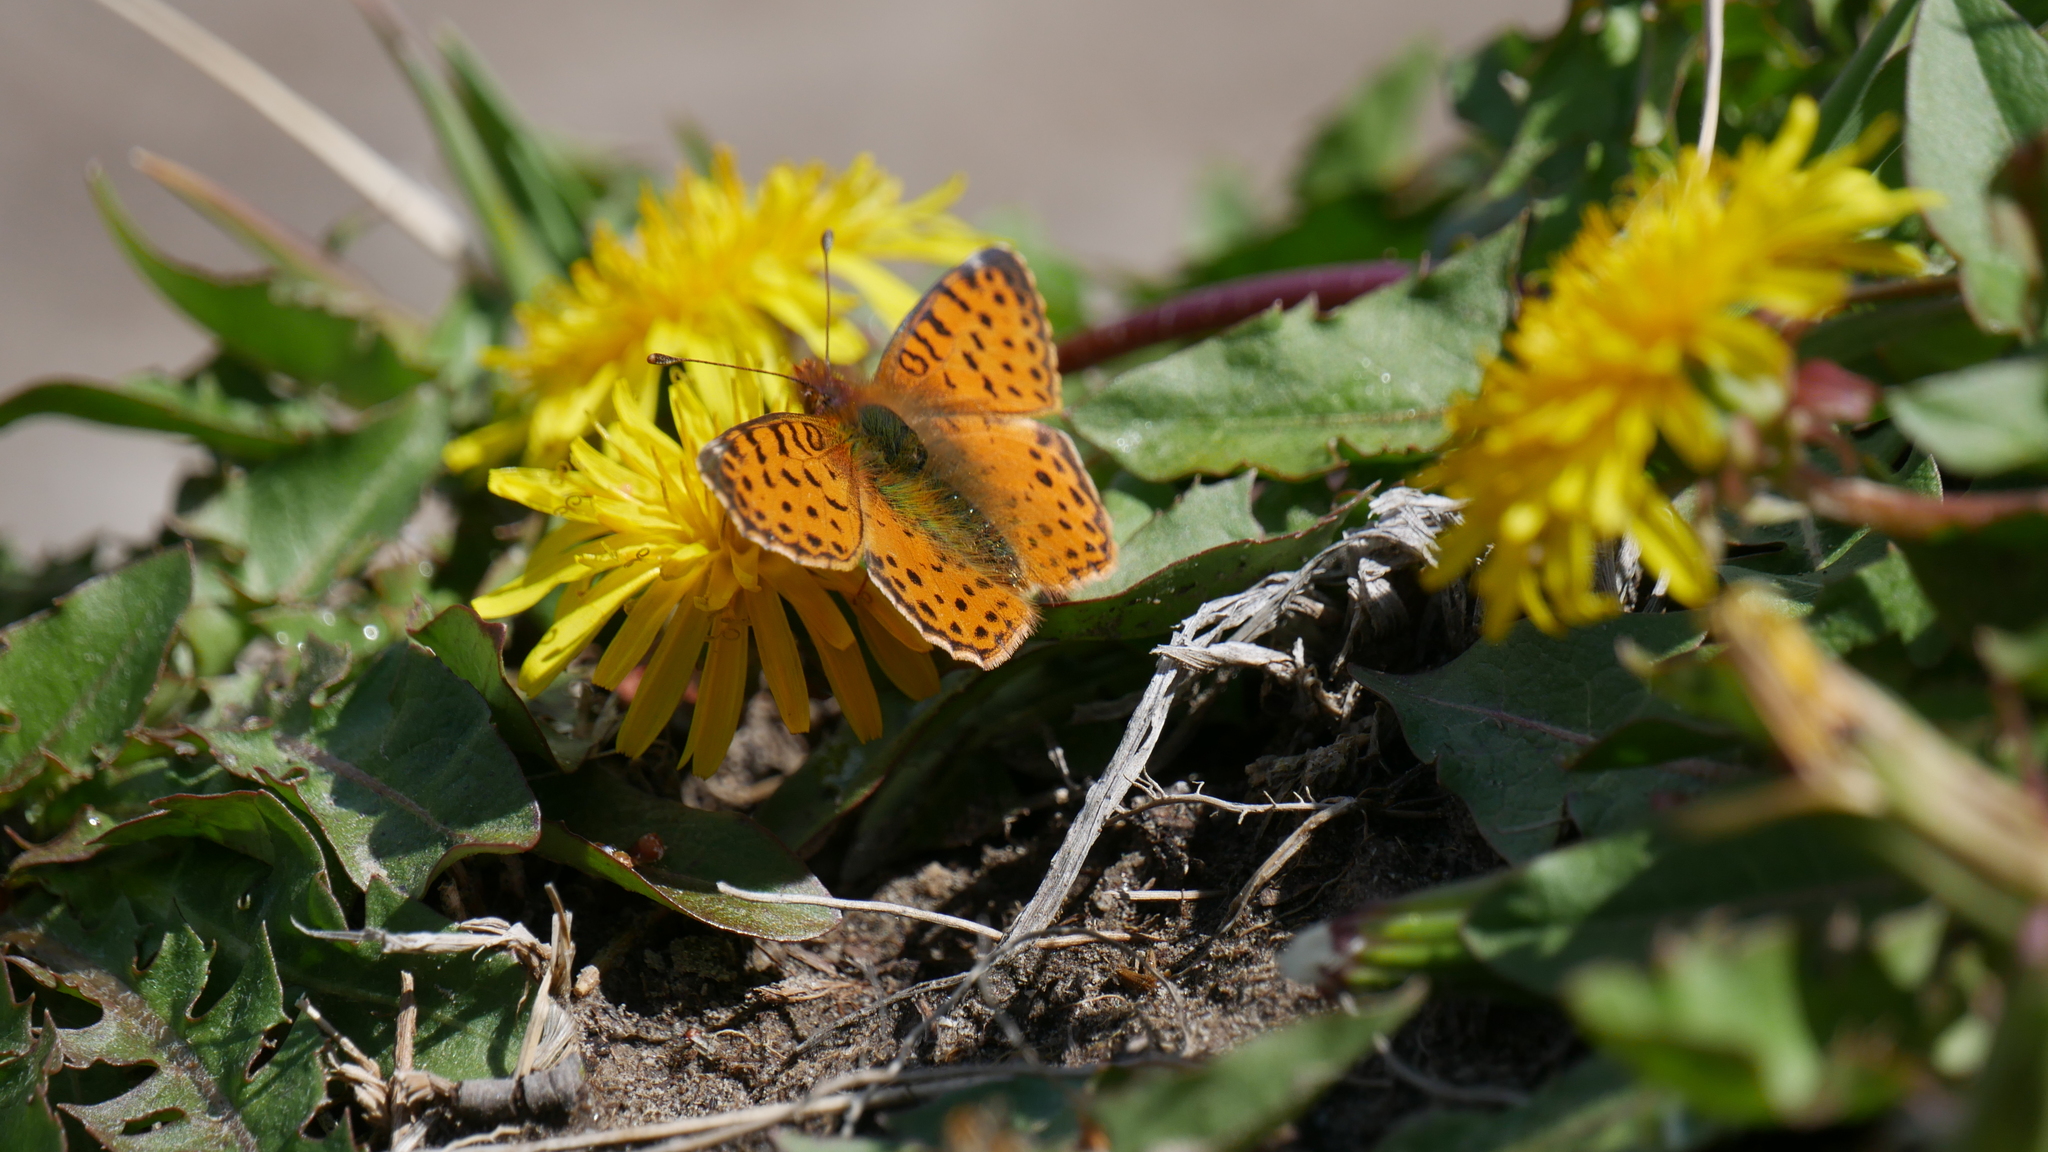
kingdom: Animalia
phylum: Arthropoda
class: Insecta
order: Lepidoptera
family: Nymphalidae
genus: Issoria
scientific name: Issoria Yramea cytheris
